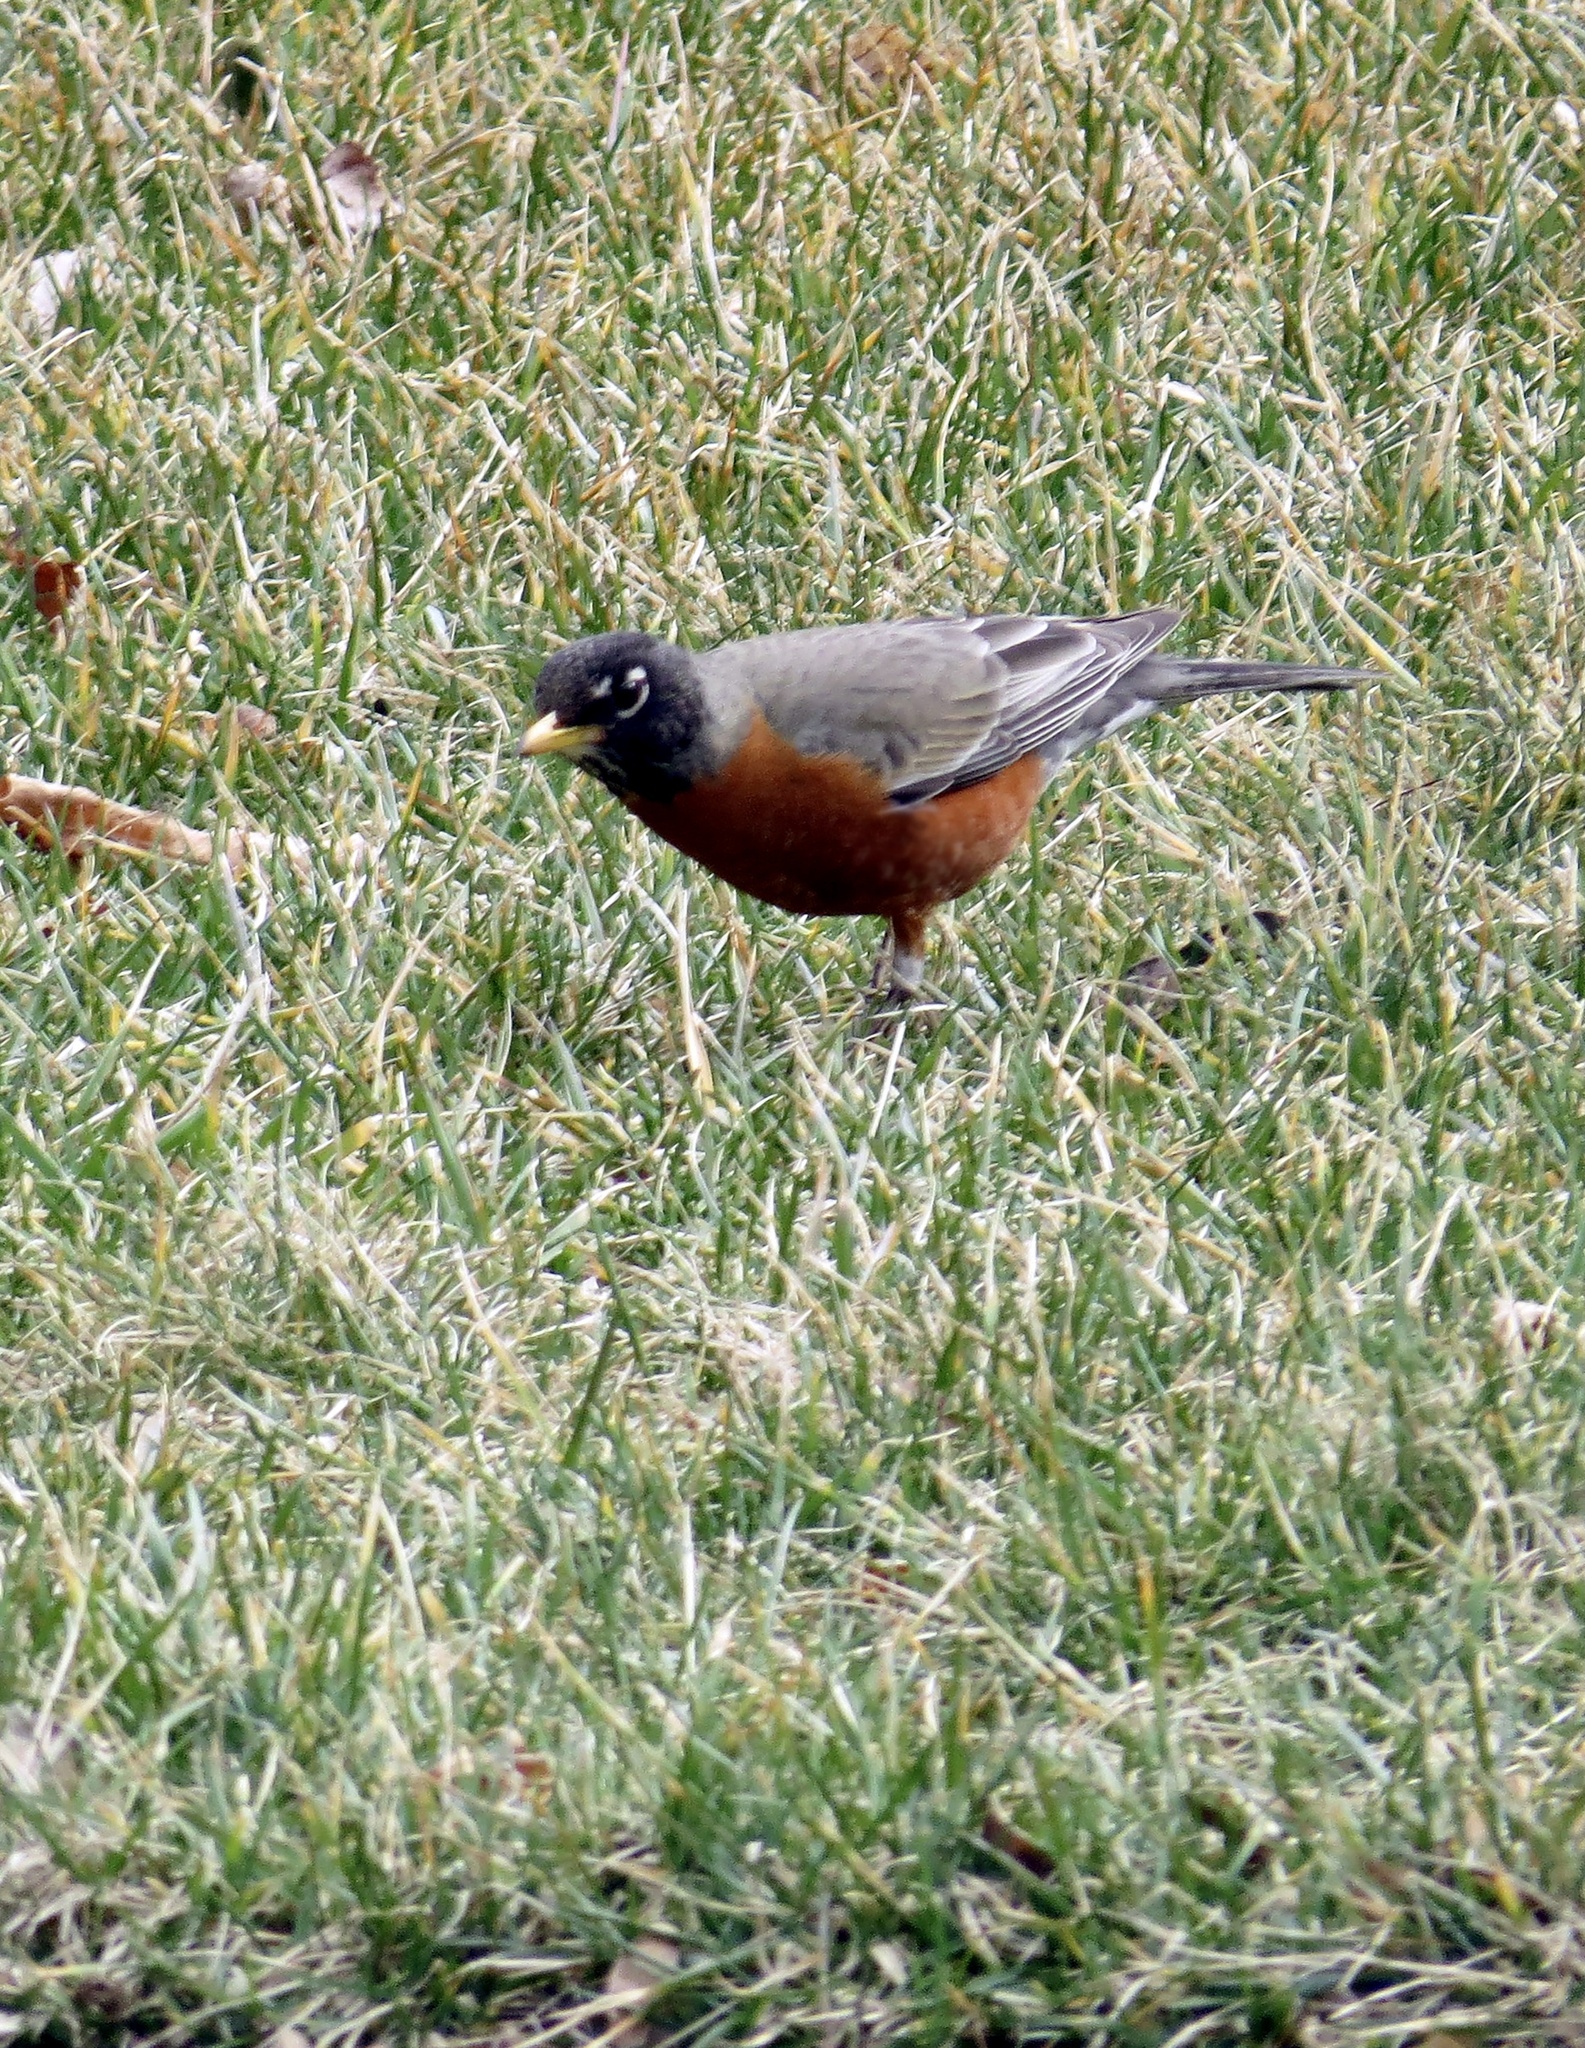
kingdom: Animalia
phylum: Chordata
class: Aves
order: Passeriformes
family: Turdidae
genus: Turdus
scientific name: Turdus migratorius
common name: American robin
